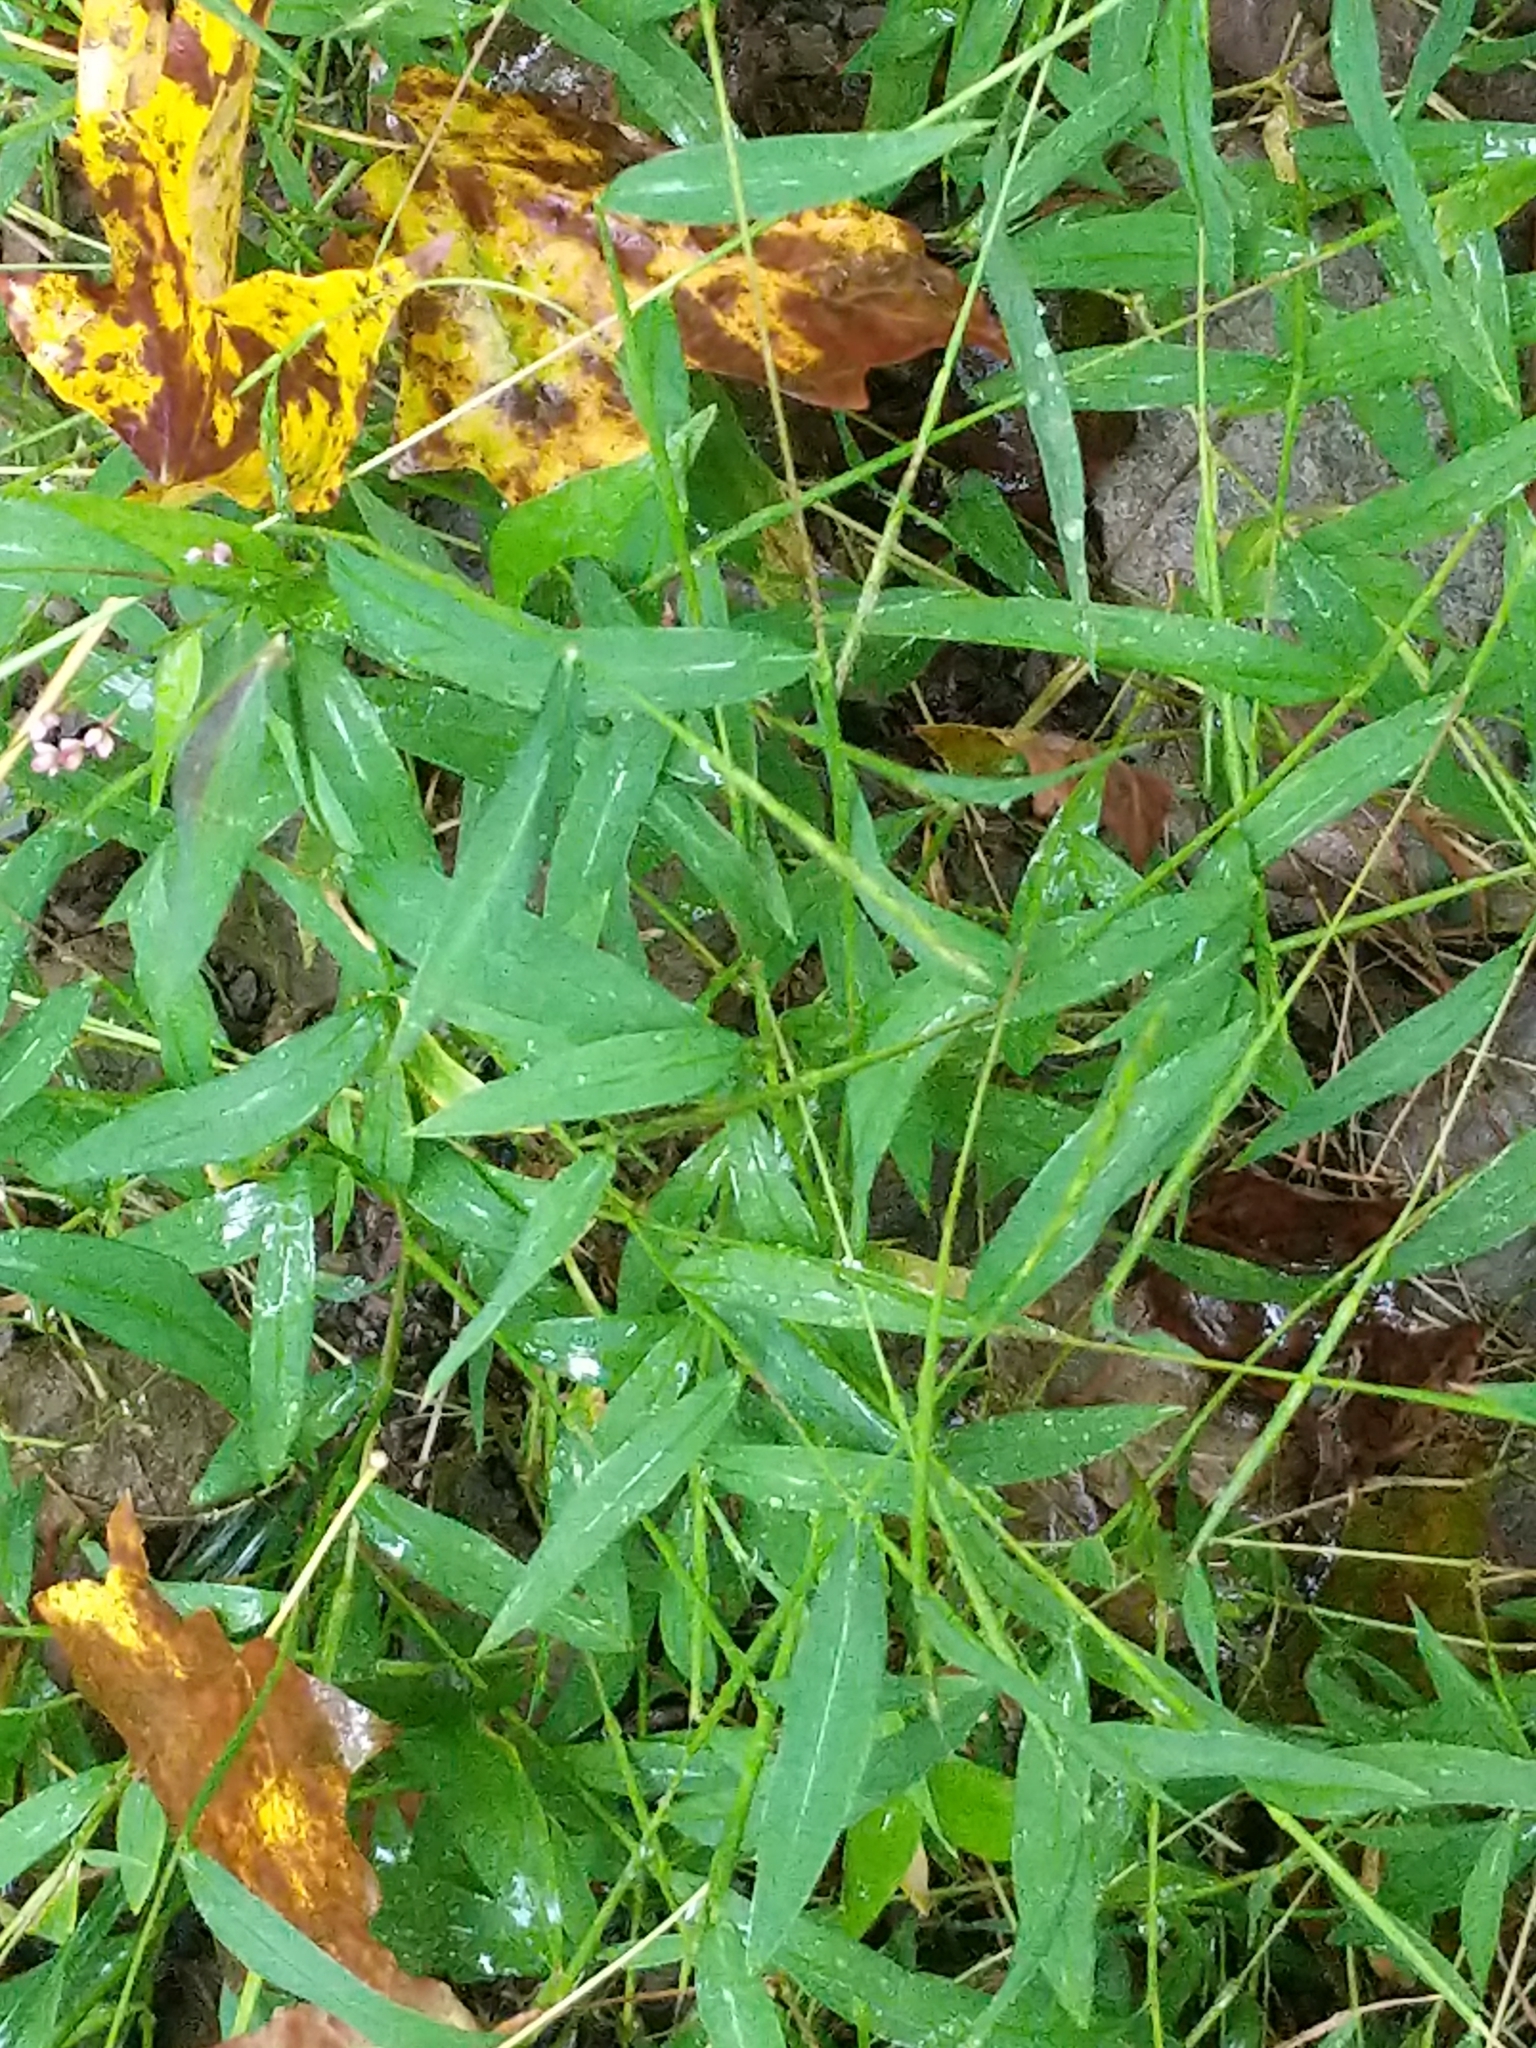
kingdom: Plantae
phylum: Tracheophyta
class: Liliopsida
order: Poales
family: Poaceae
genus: Microstegium
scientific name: Microstegium vimineum
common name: Japanese stiltgrass
